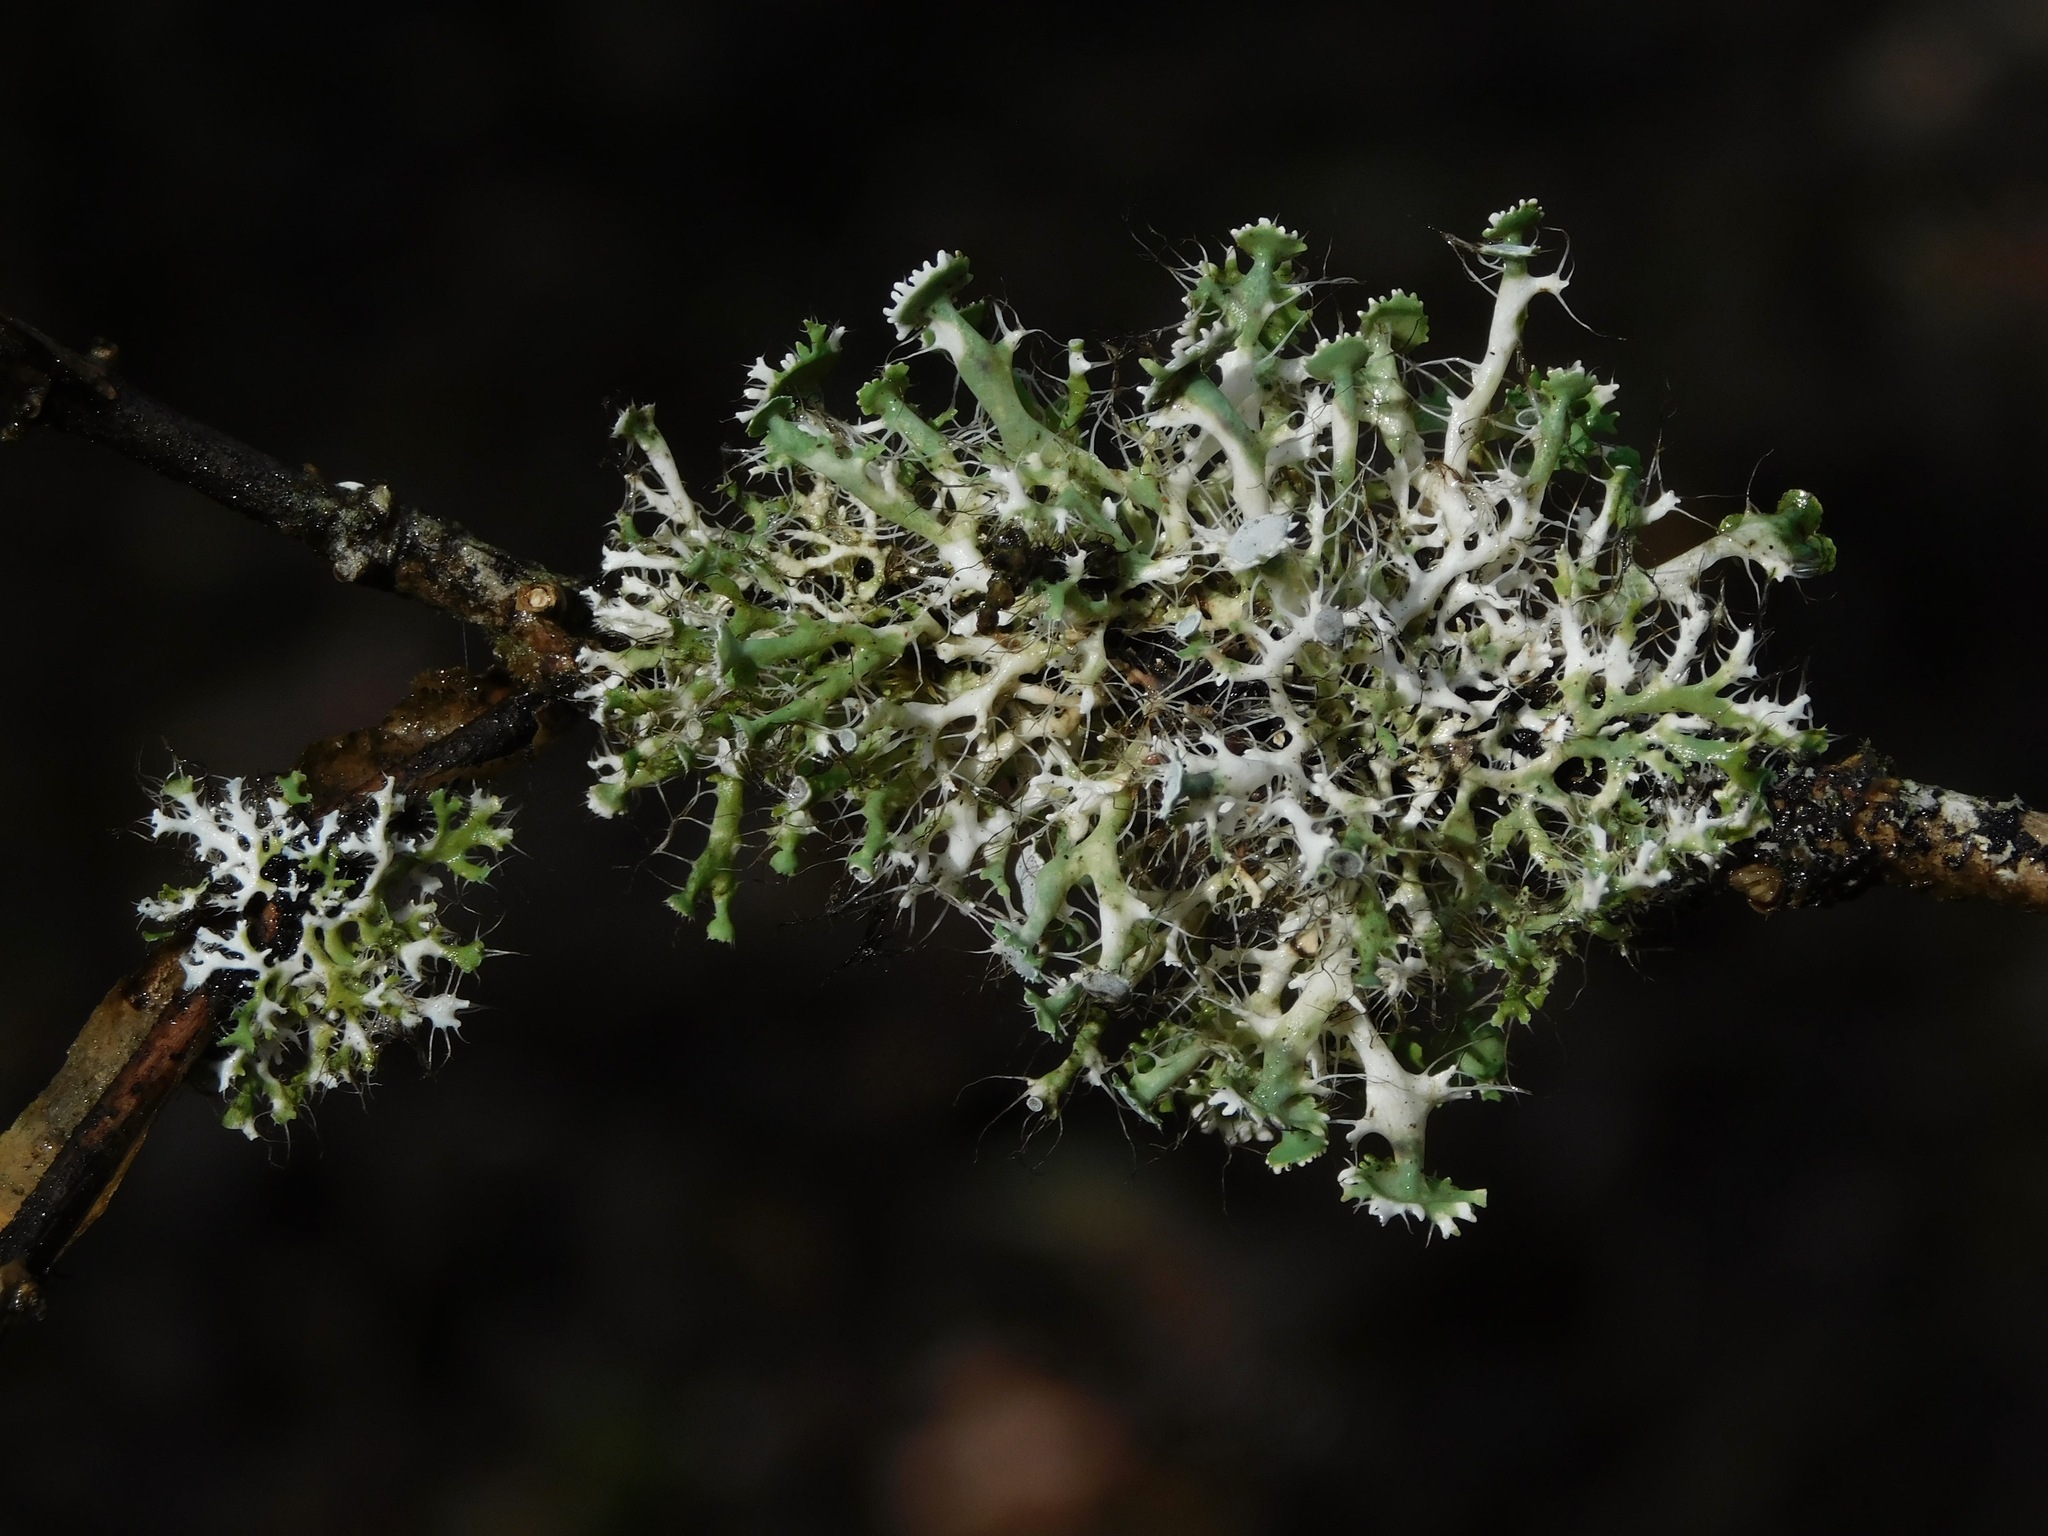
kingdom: Fungi
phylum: Ascomycota
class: Lecanoromycetes
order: Caliciales
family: Physciaceae
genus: Heterodermia
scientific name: Heterodermia echinata
